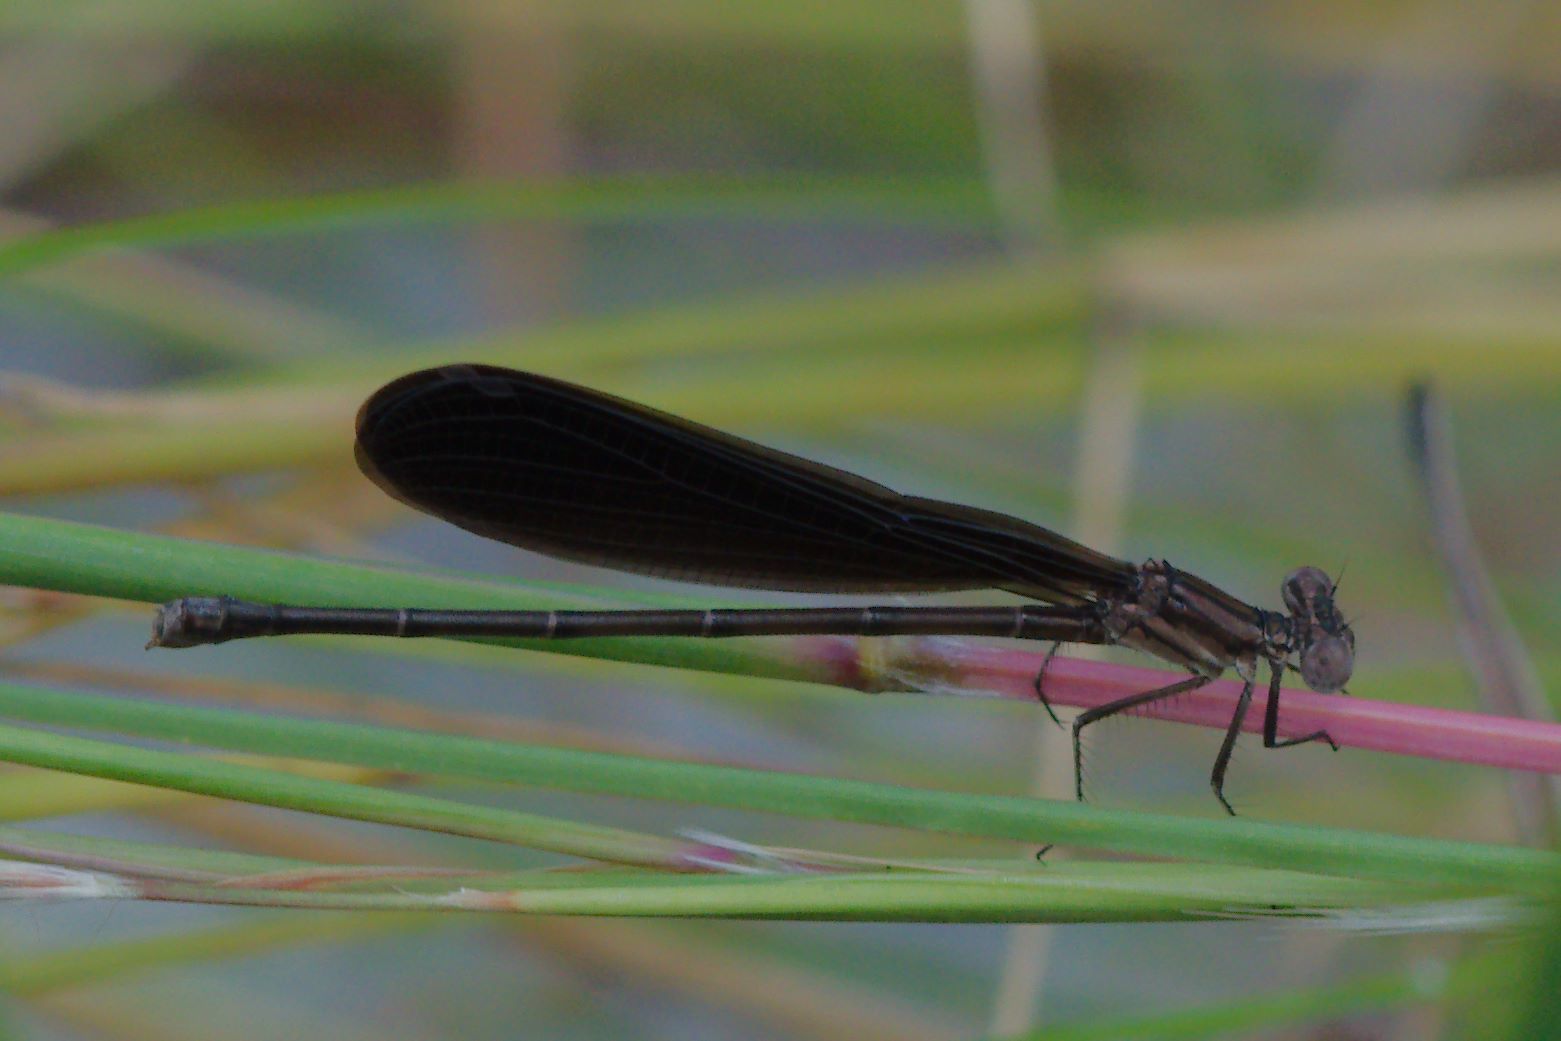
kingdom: Animalia
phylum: Arthropoda
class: Insecta
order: Odonata
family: Coenagrionidae
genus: Argia
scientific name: Argia fumipennis
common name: Variable dancer
